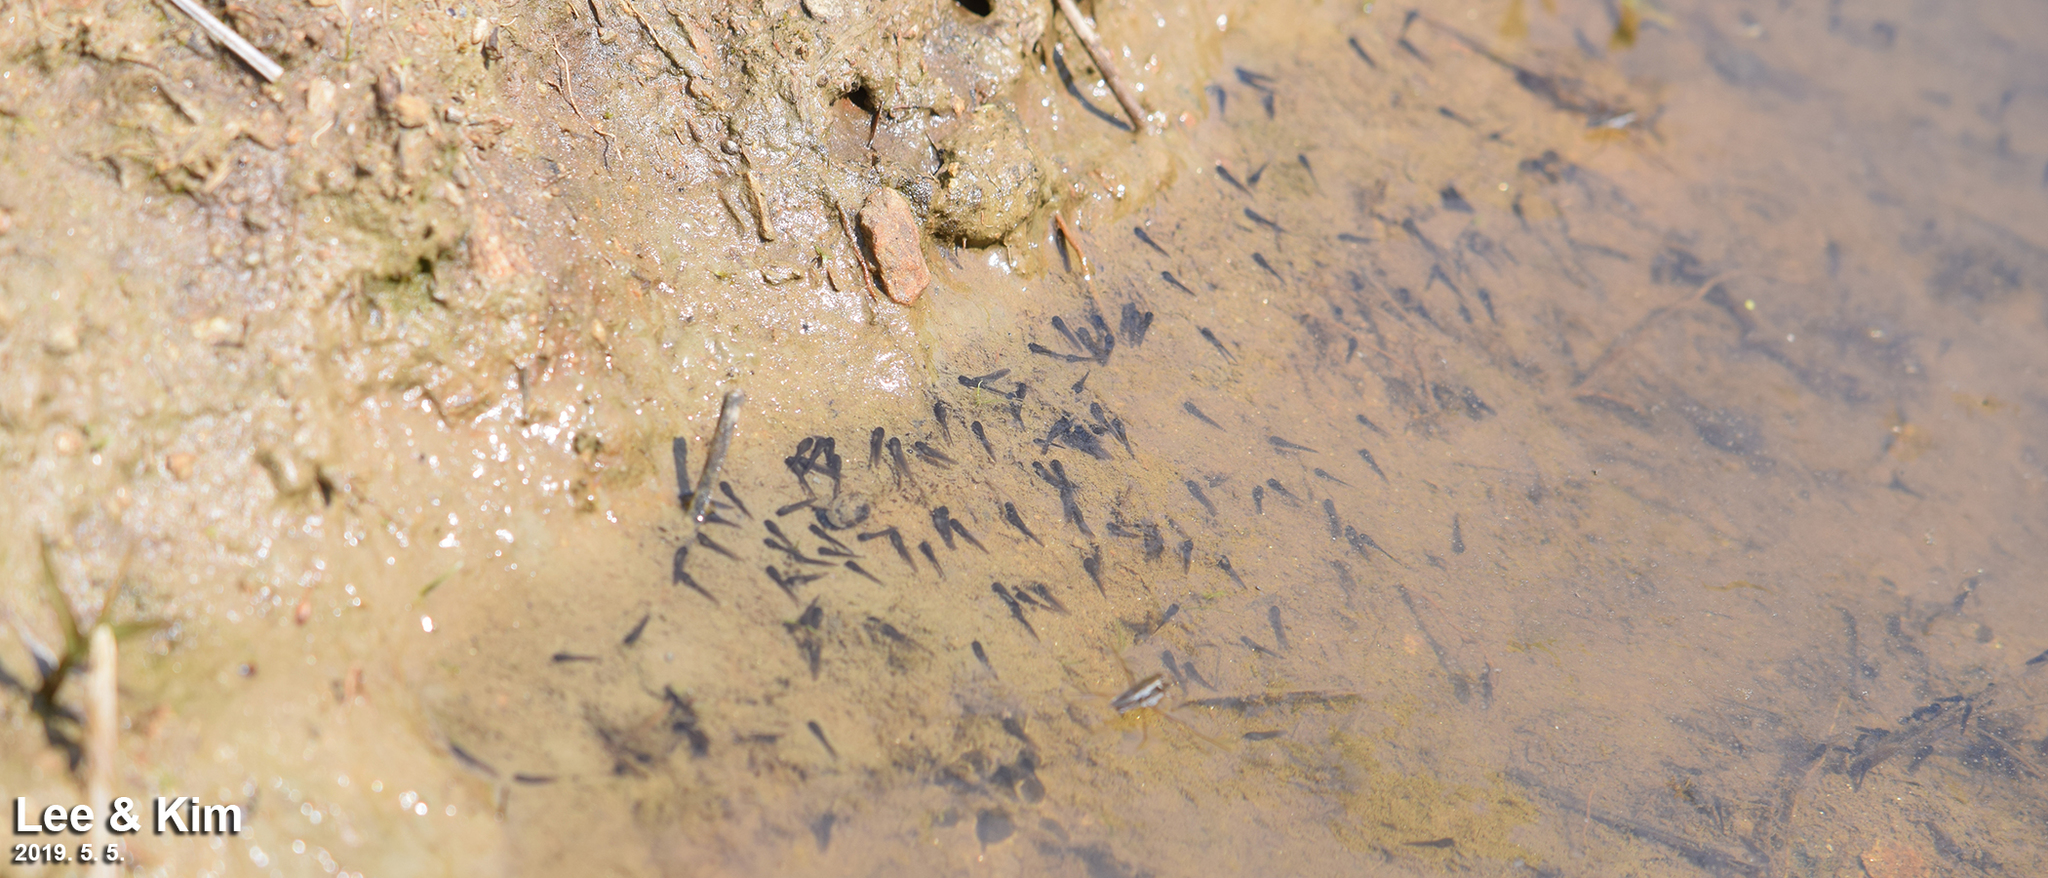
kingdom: Animalia
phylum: Chordata
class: Amphibia
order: Anura
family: Ranidae
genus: Pelophylax
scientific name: Pelophylax nigromaculatus
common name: Black-spotted pond frog
